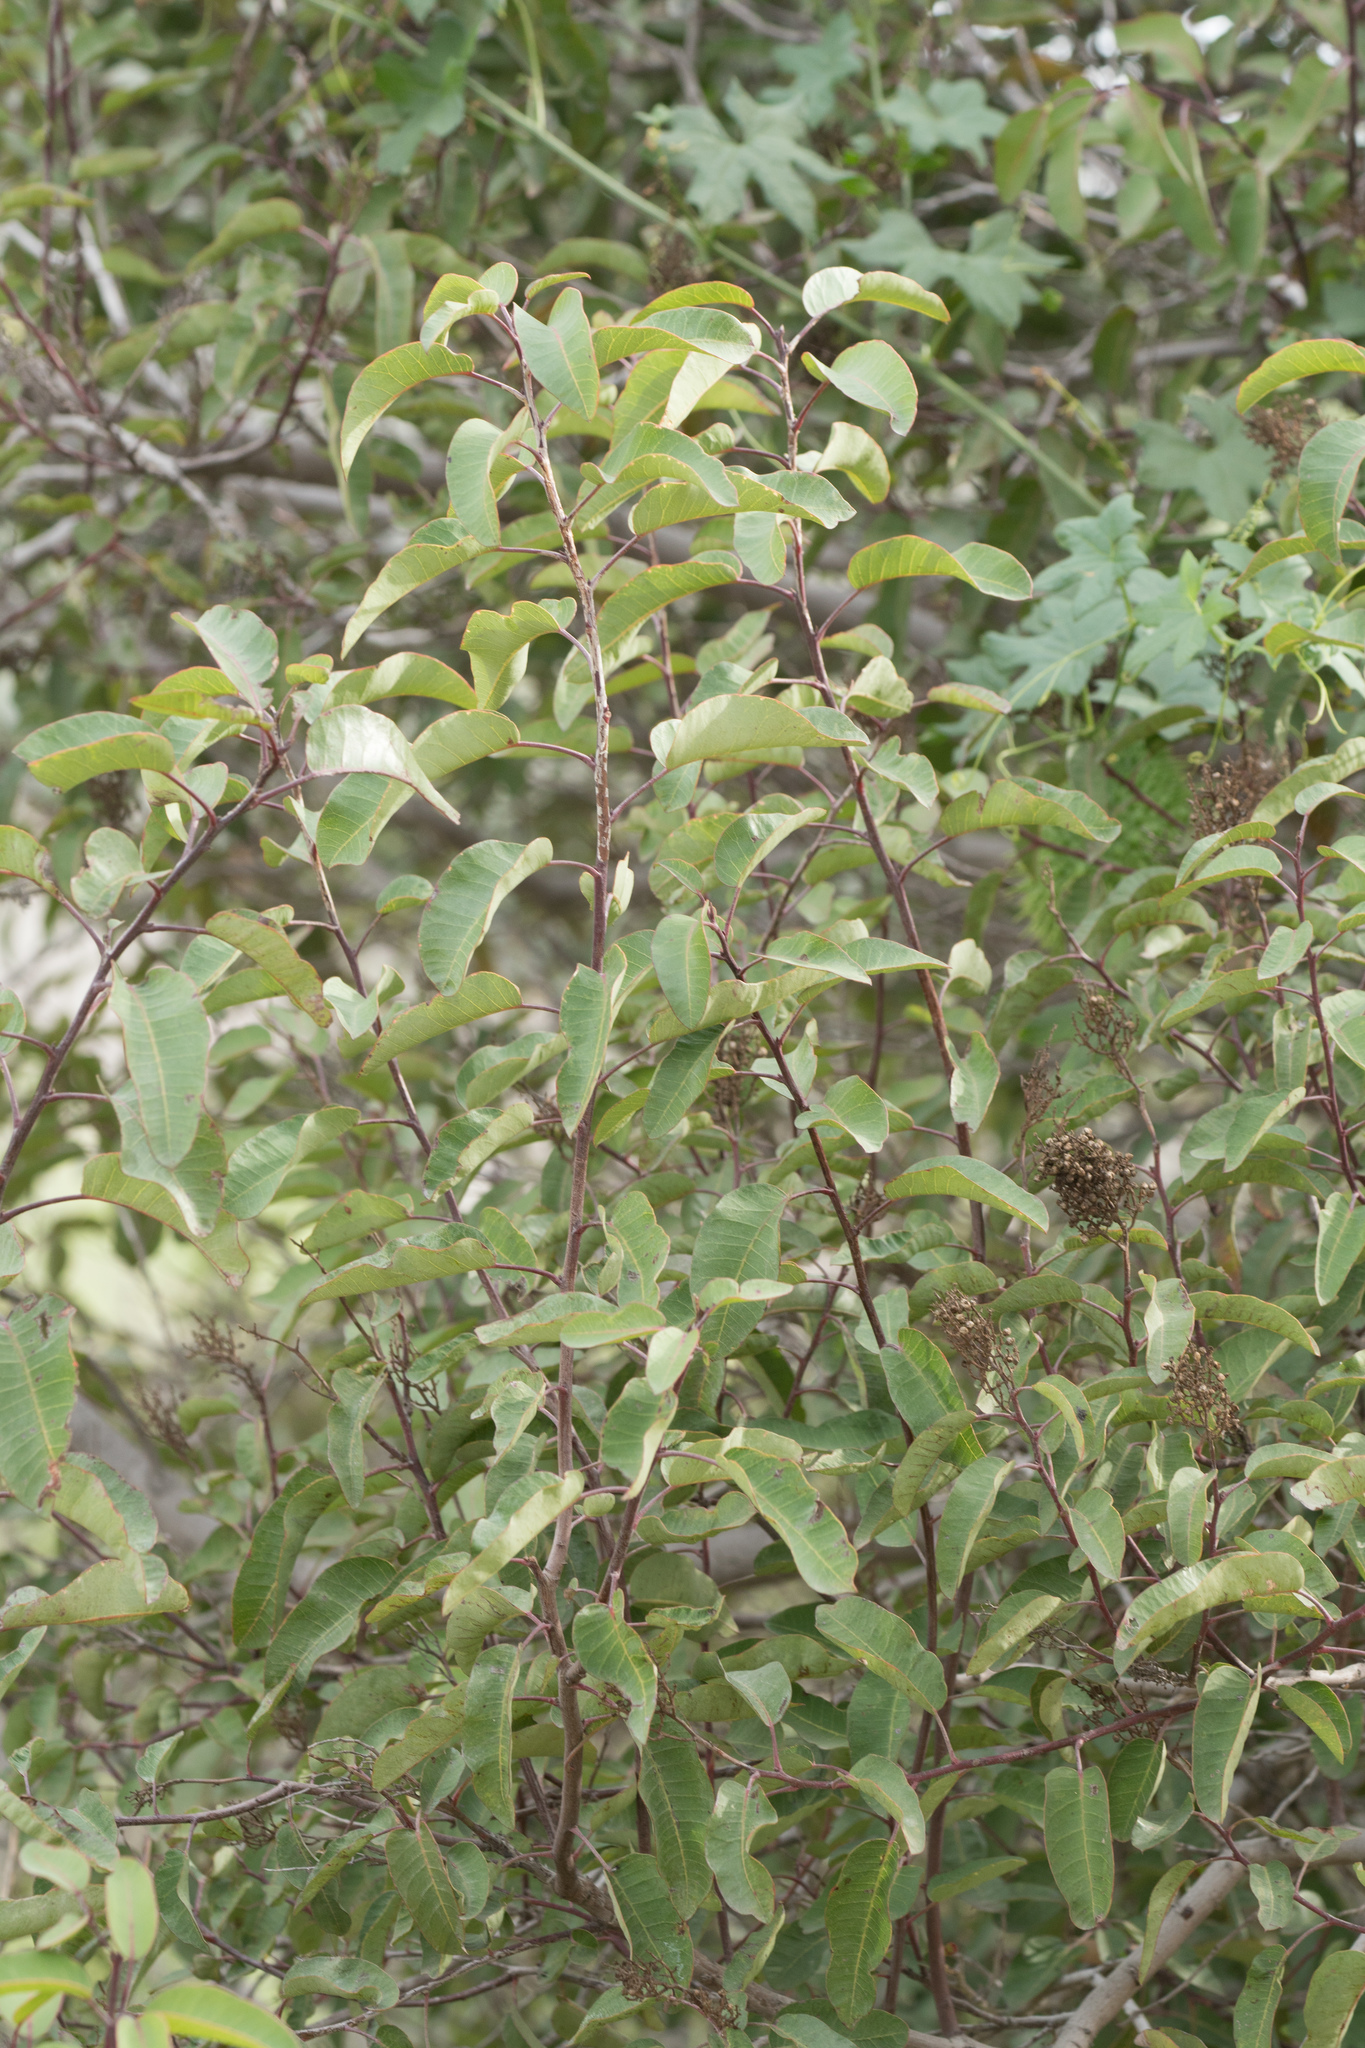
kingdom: Plantae
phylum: Tracheophyta
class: Magnoliopsida
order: Sapindales
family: Anacardiaceae
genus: Malosma
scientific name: Malosma laurina
